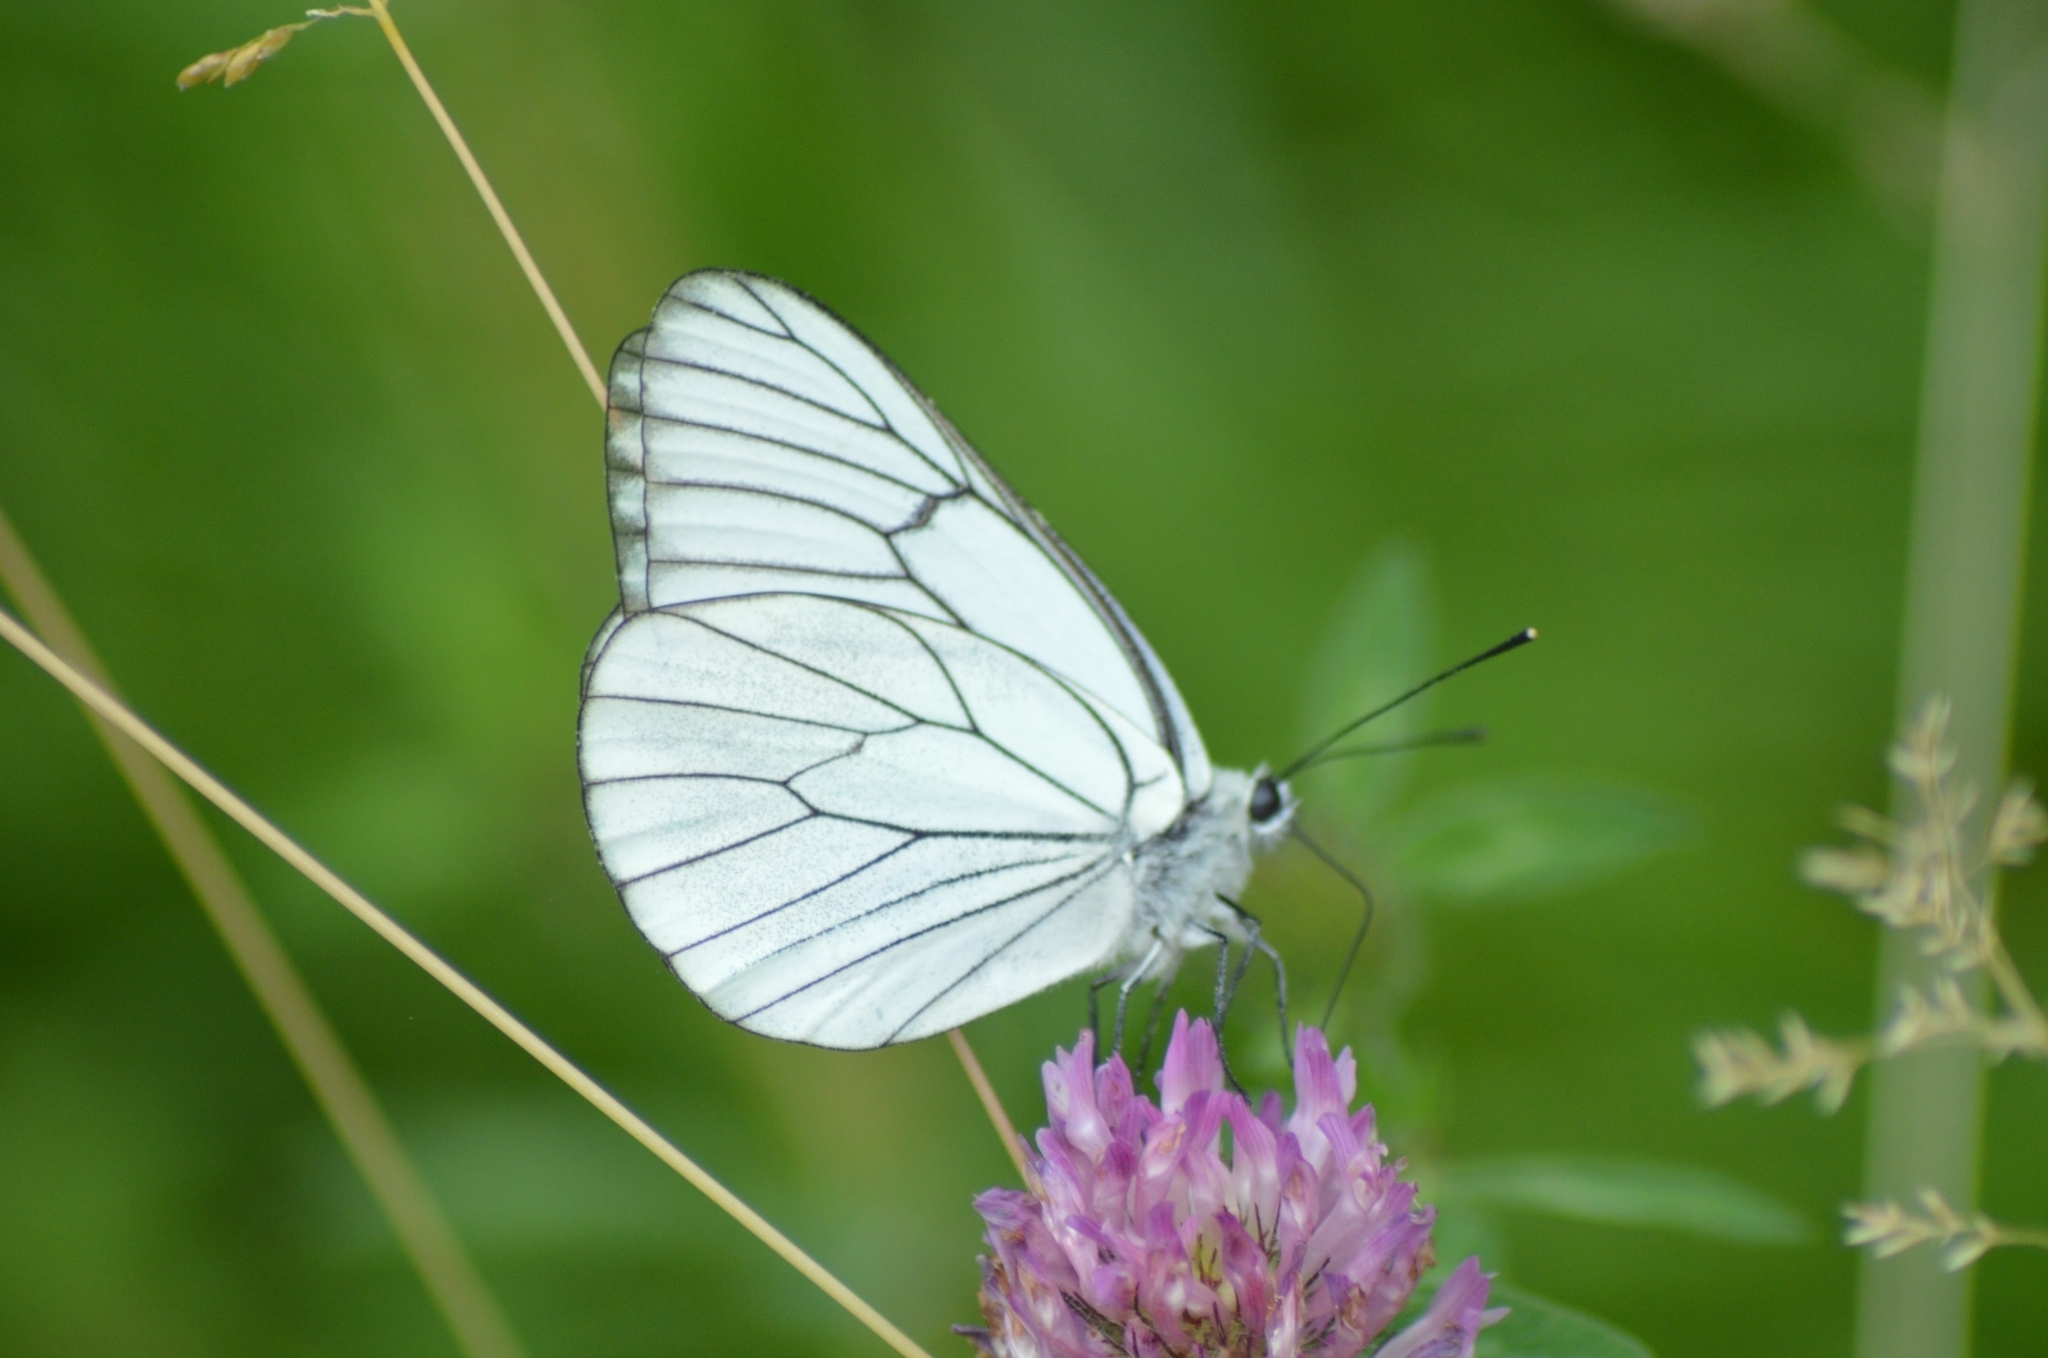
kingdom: Animalia
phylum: Arthropoda
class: Insecta
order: Lepidoptera
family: Pieridae
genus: Aporia
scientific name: Aporia crataegi
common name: Black-veined white
